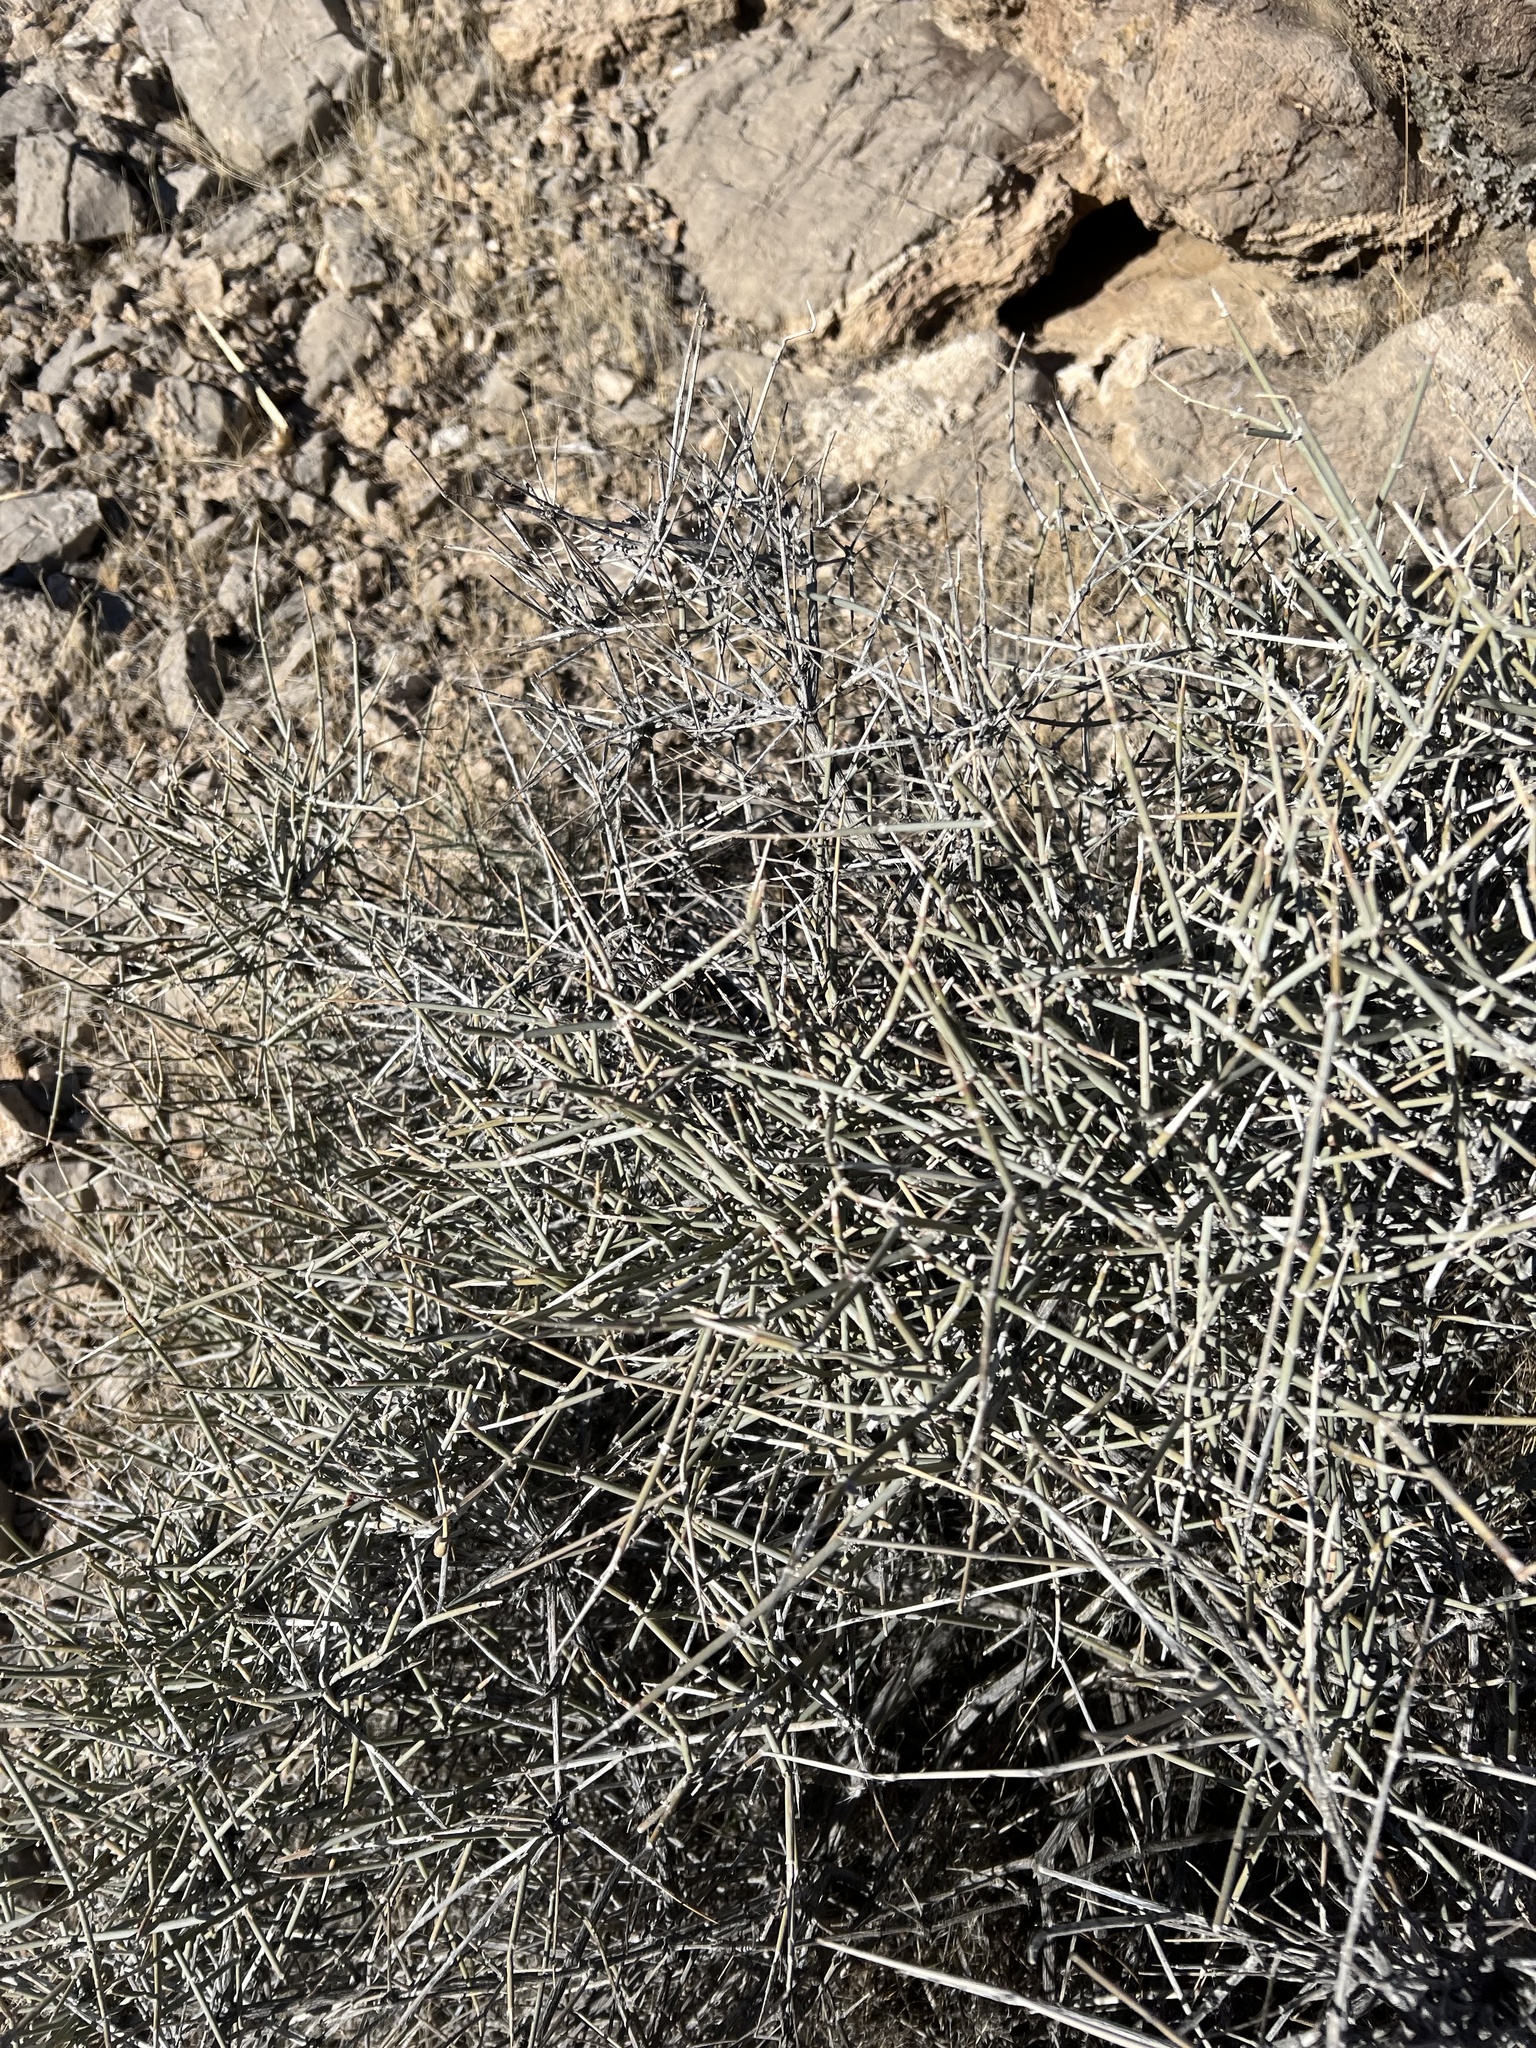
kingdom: Plantae
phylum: Tracheophyta
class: Gnetopsida
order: Ephedrales
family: Ephedraceae
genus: Ephedra
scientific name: Ephedra nevadensis
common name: Gray ephedra
